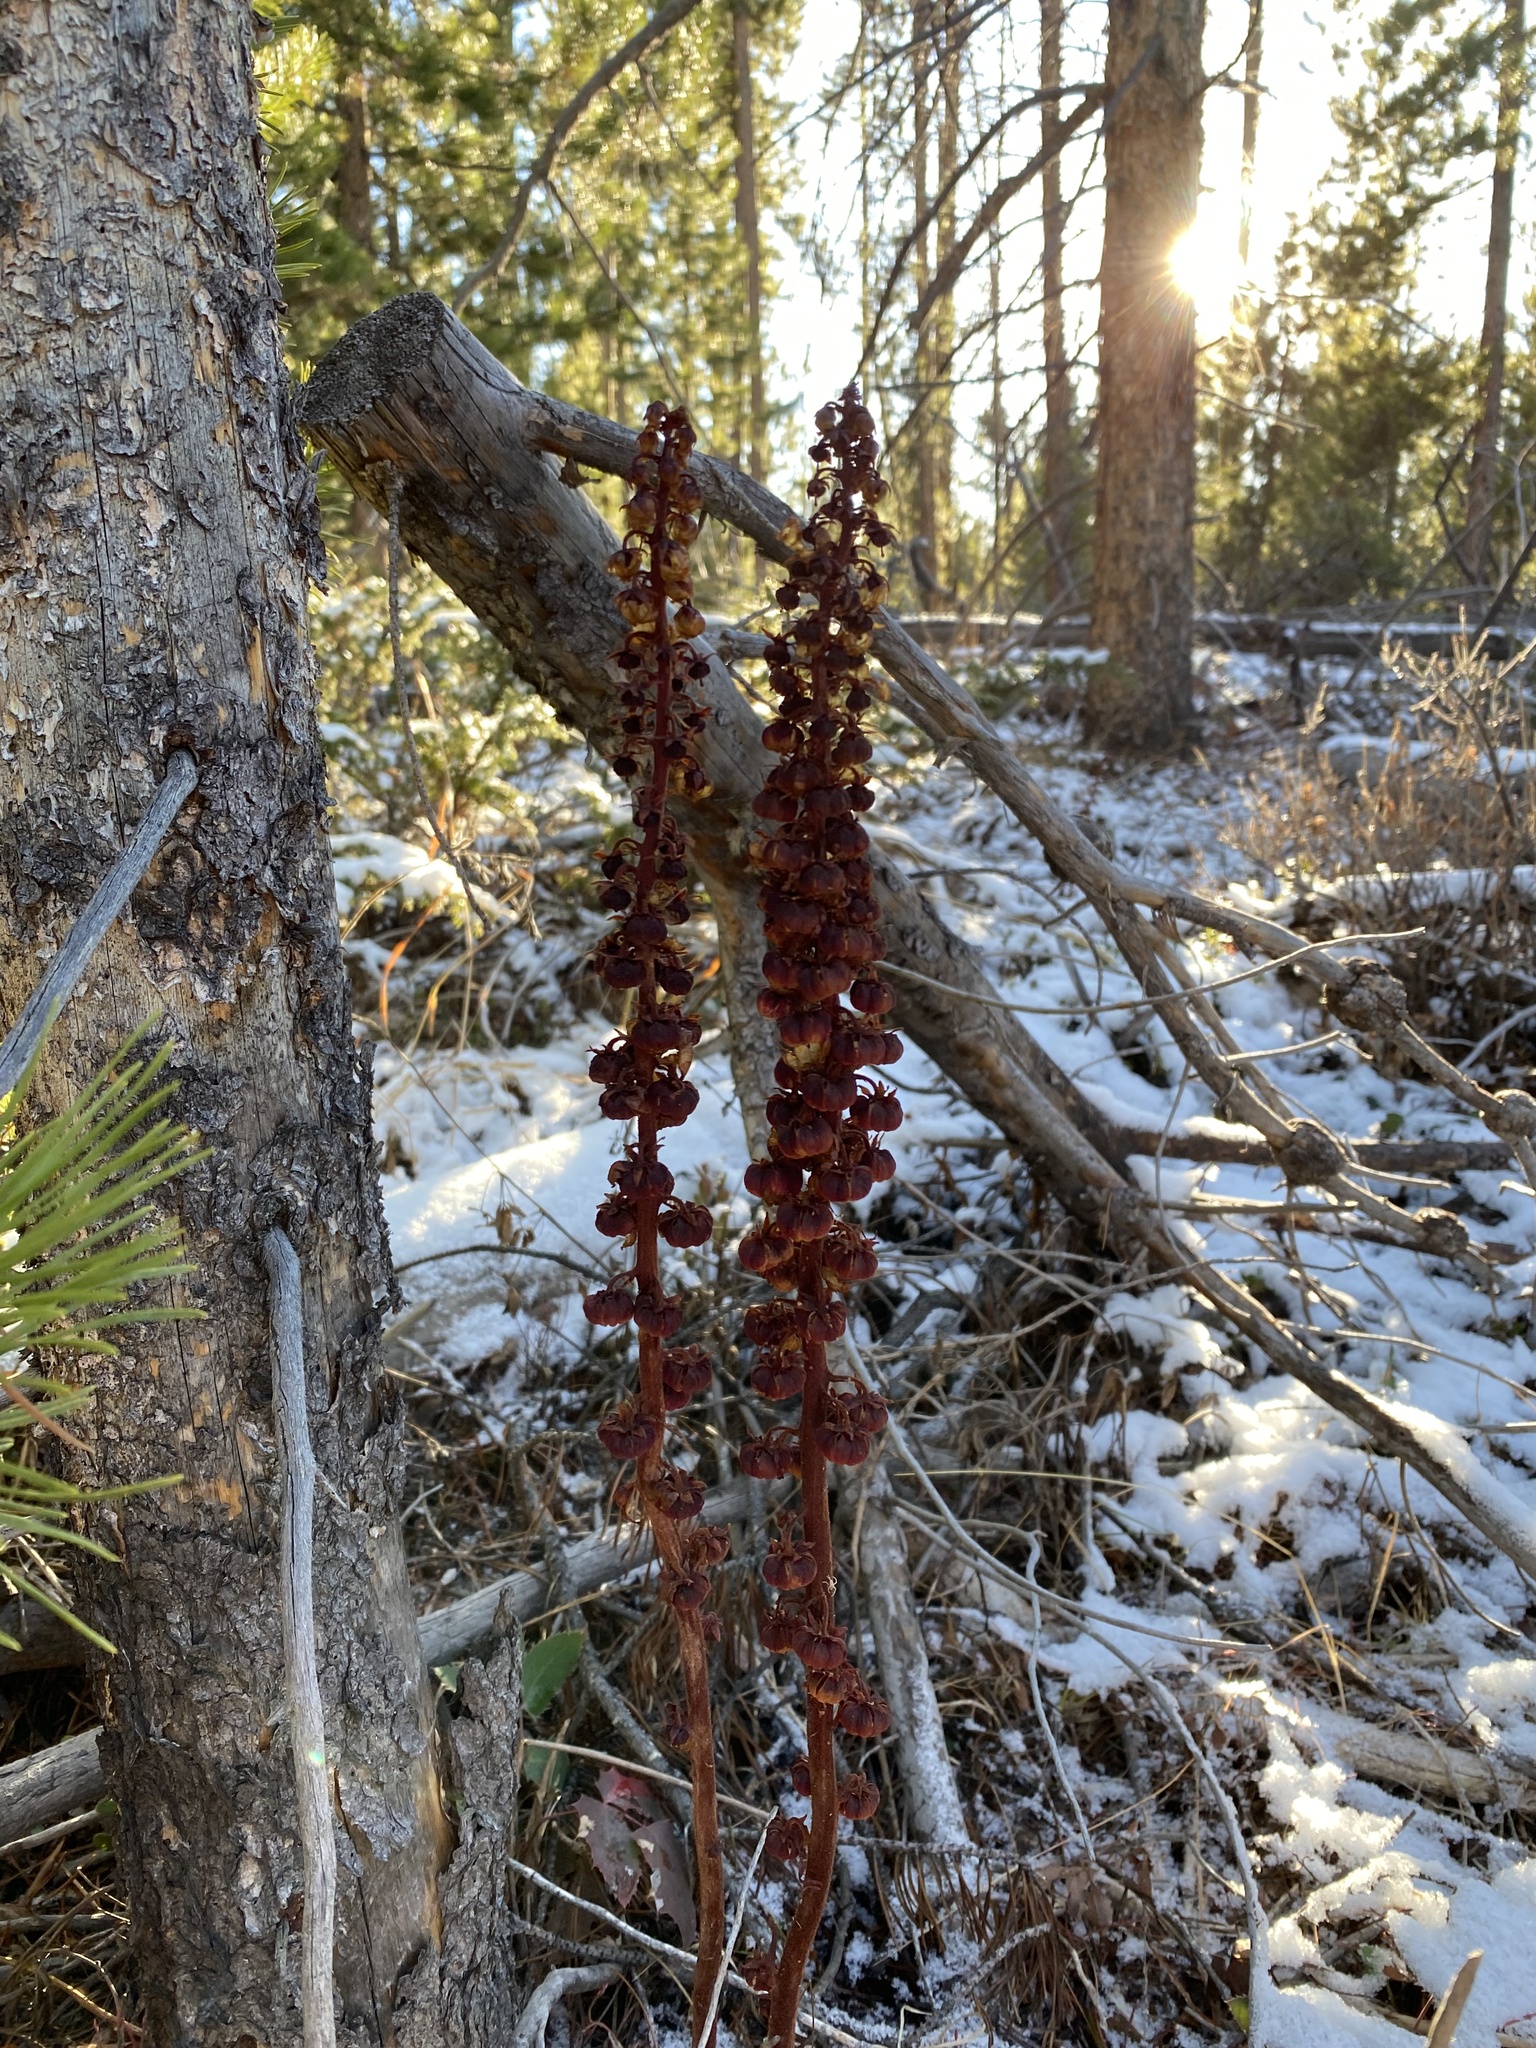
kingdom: Plantae
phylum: Tracheophyta
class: Magnoliopsida
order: Ericales
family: Ericaceae
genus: Pterospora
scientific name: Pterospora andromedea
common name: Giant bird's-nest
